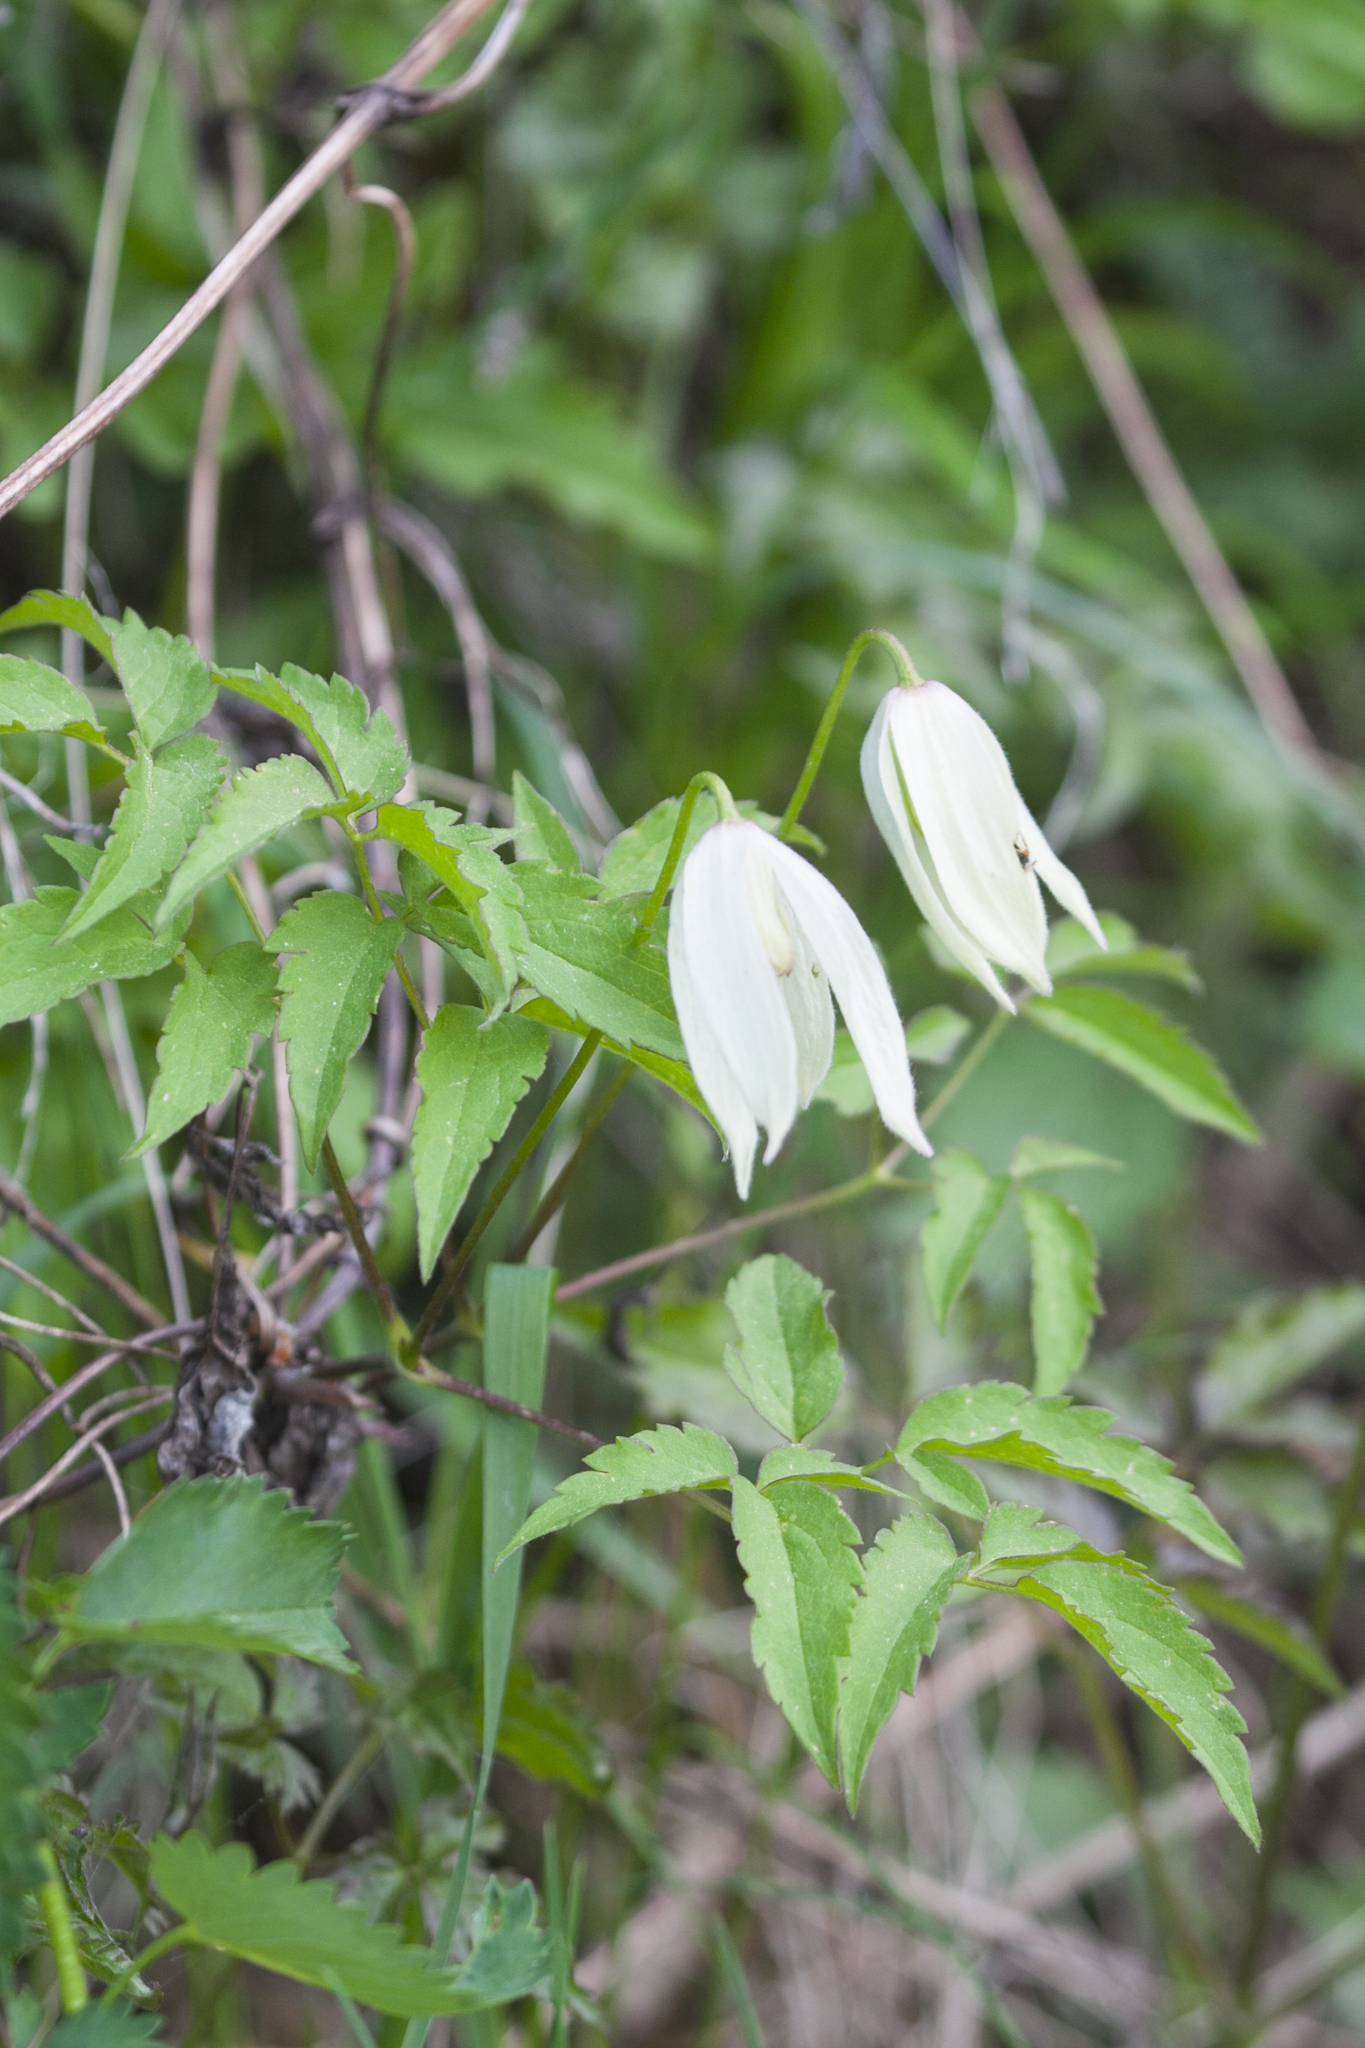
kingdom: Plantae
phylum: Tracheophyta
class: Magnoliopsida
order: Ranunculales
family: Ranunculaceae
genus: Clematis
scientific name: Clematis sibirica
